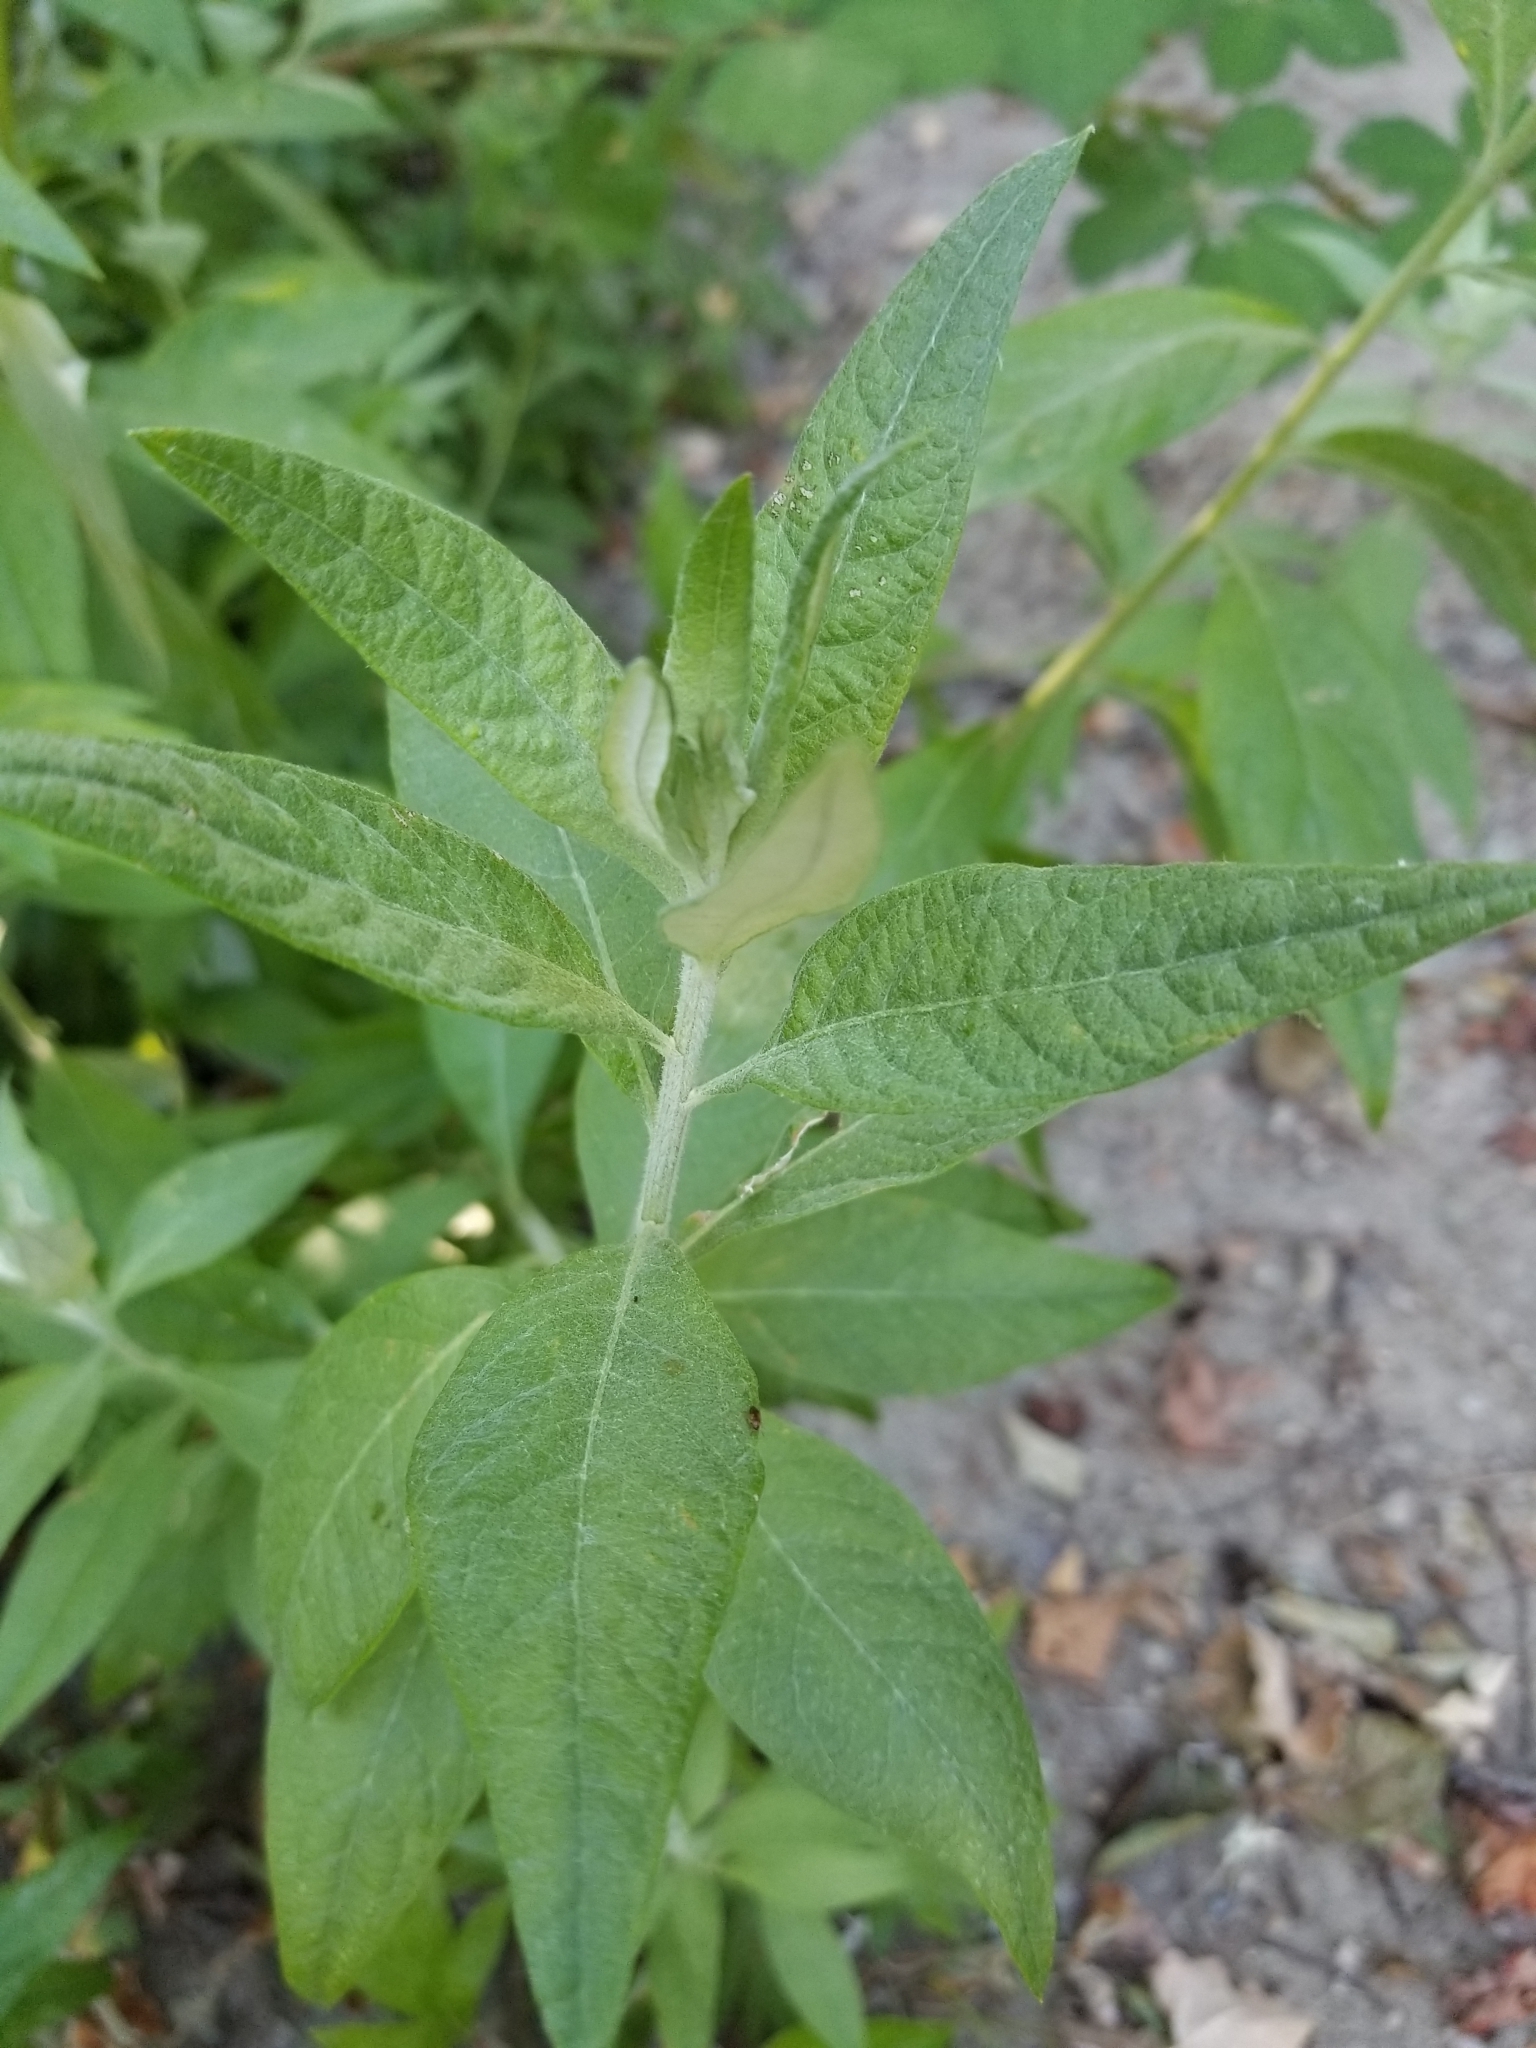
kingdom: Plantae
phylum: Tracheophyta
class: Magnoliopsida
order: Asterales
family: Asteraceae
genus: Artemisia
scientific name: Artemisia douglasiana
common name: Northwest mugwort
